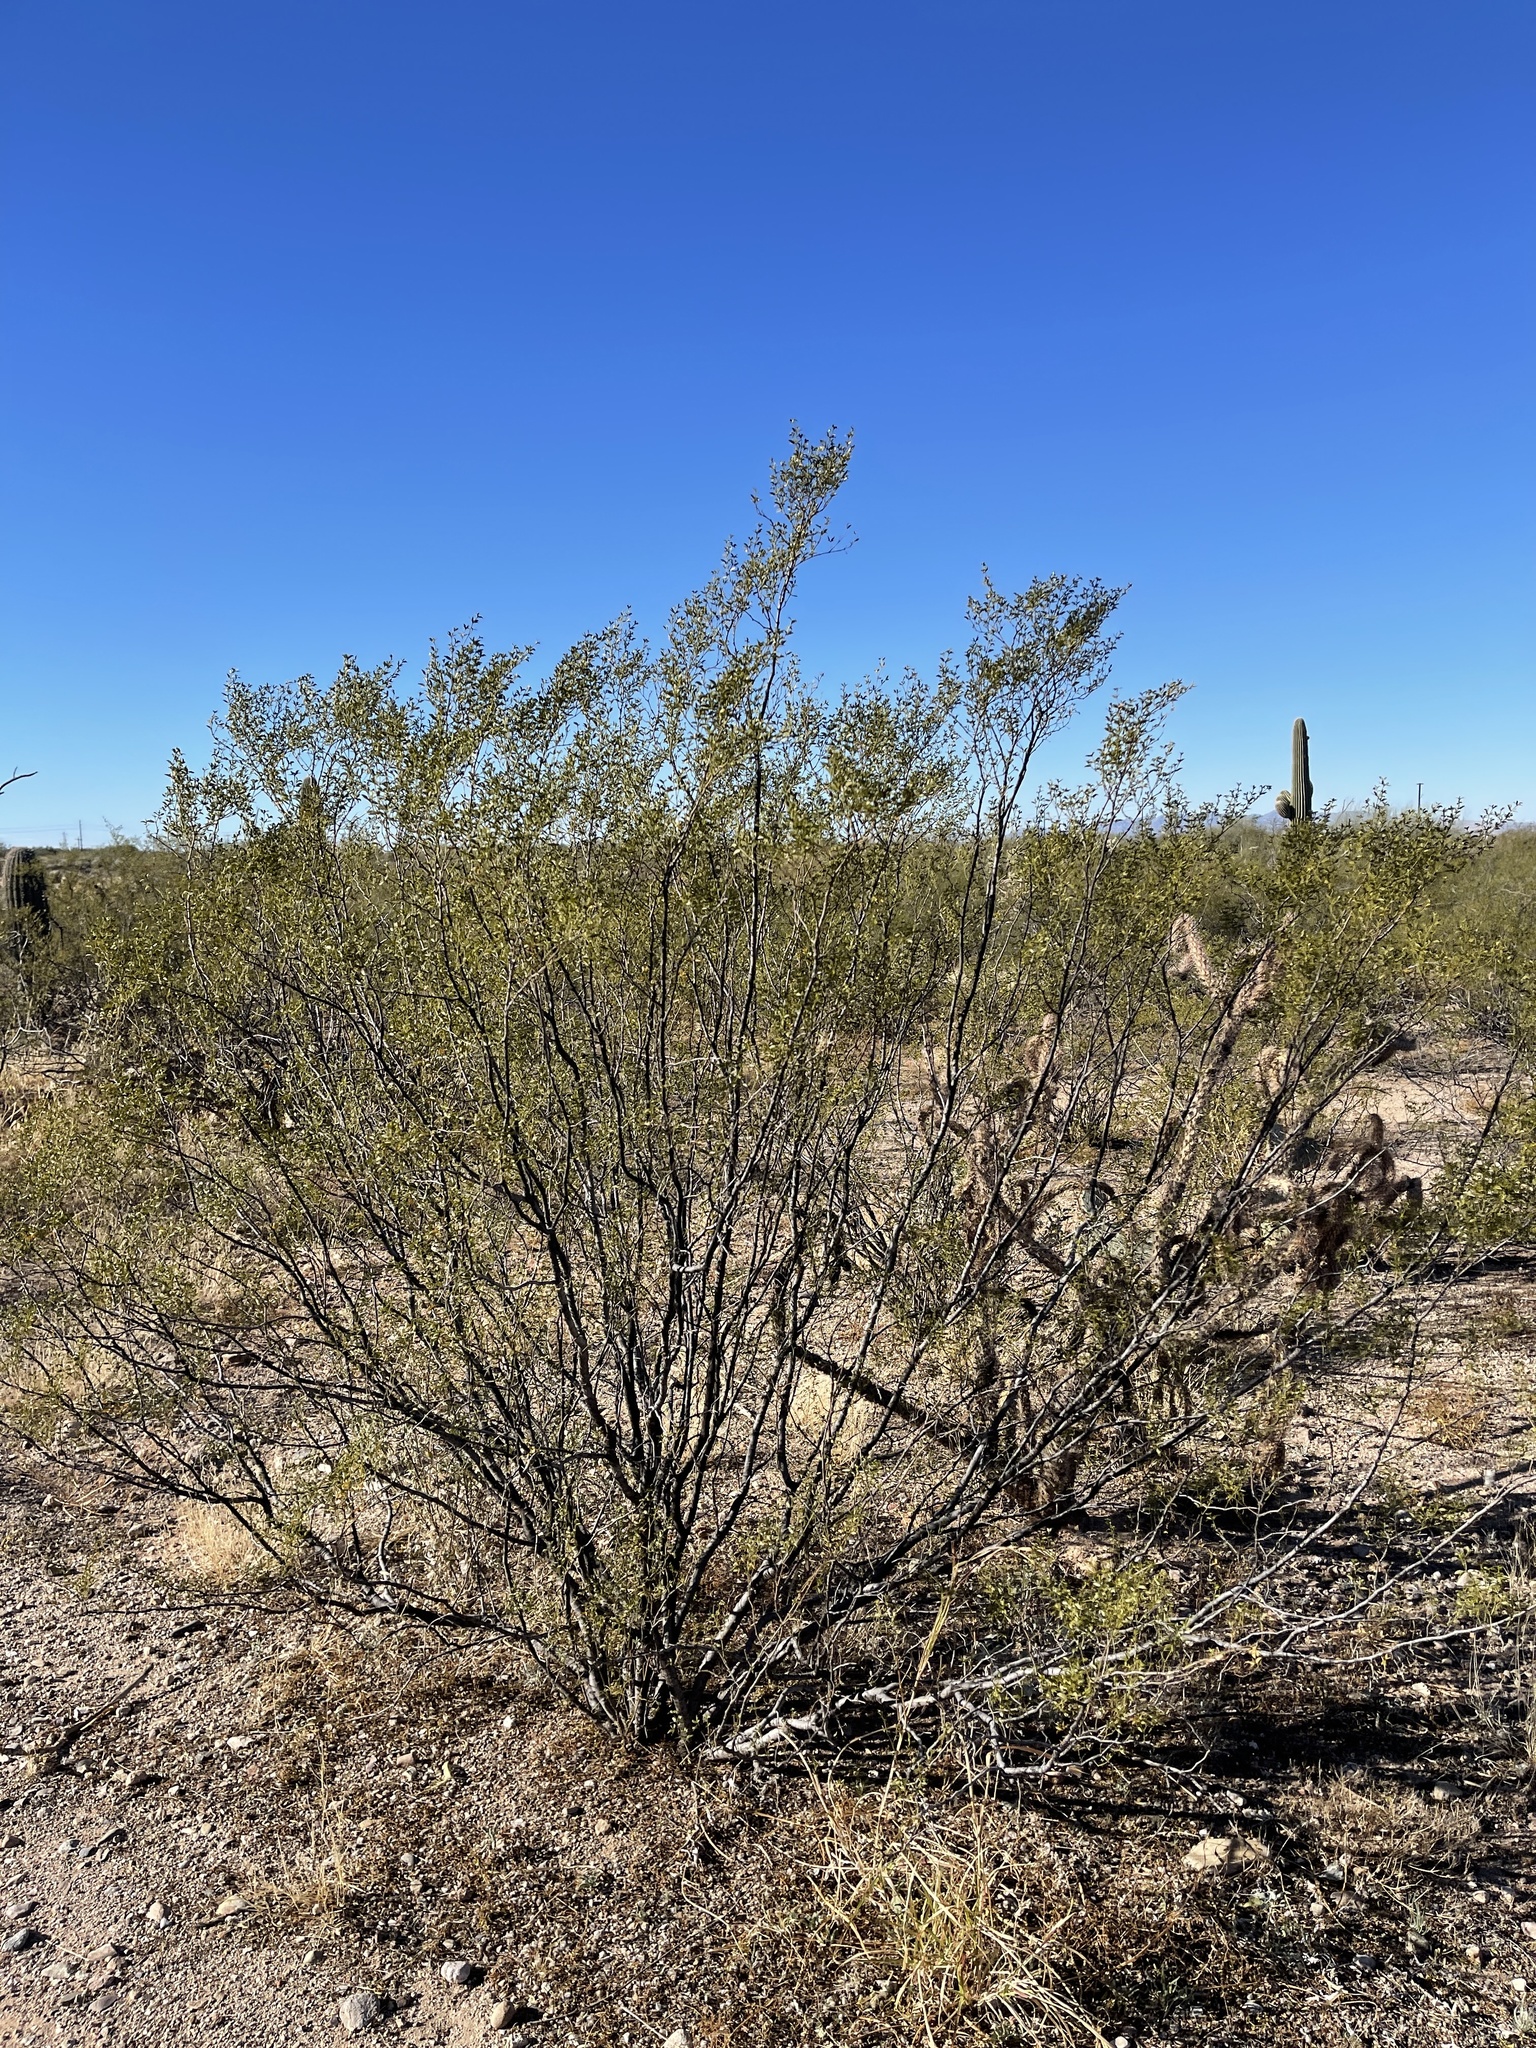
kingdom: Plantae
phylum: Tracheophyta
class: Magnoliopsida
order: Zygophyllales
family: Zygophyllaceae
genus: Larrea
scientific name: Larrea tridentata
